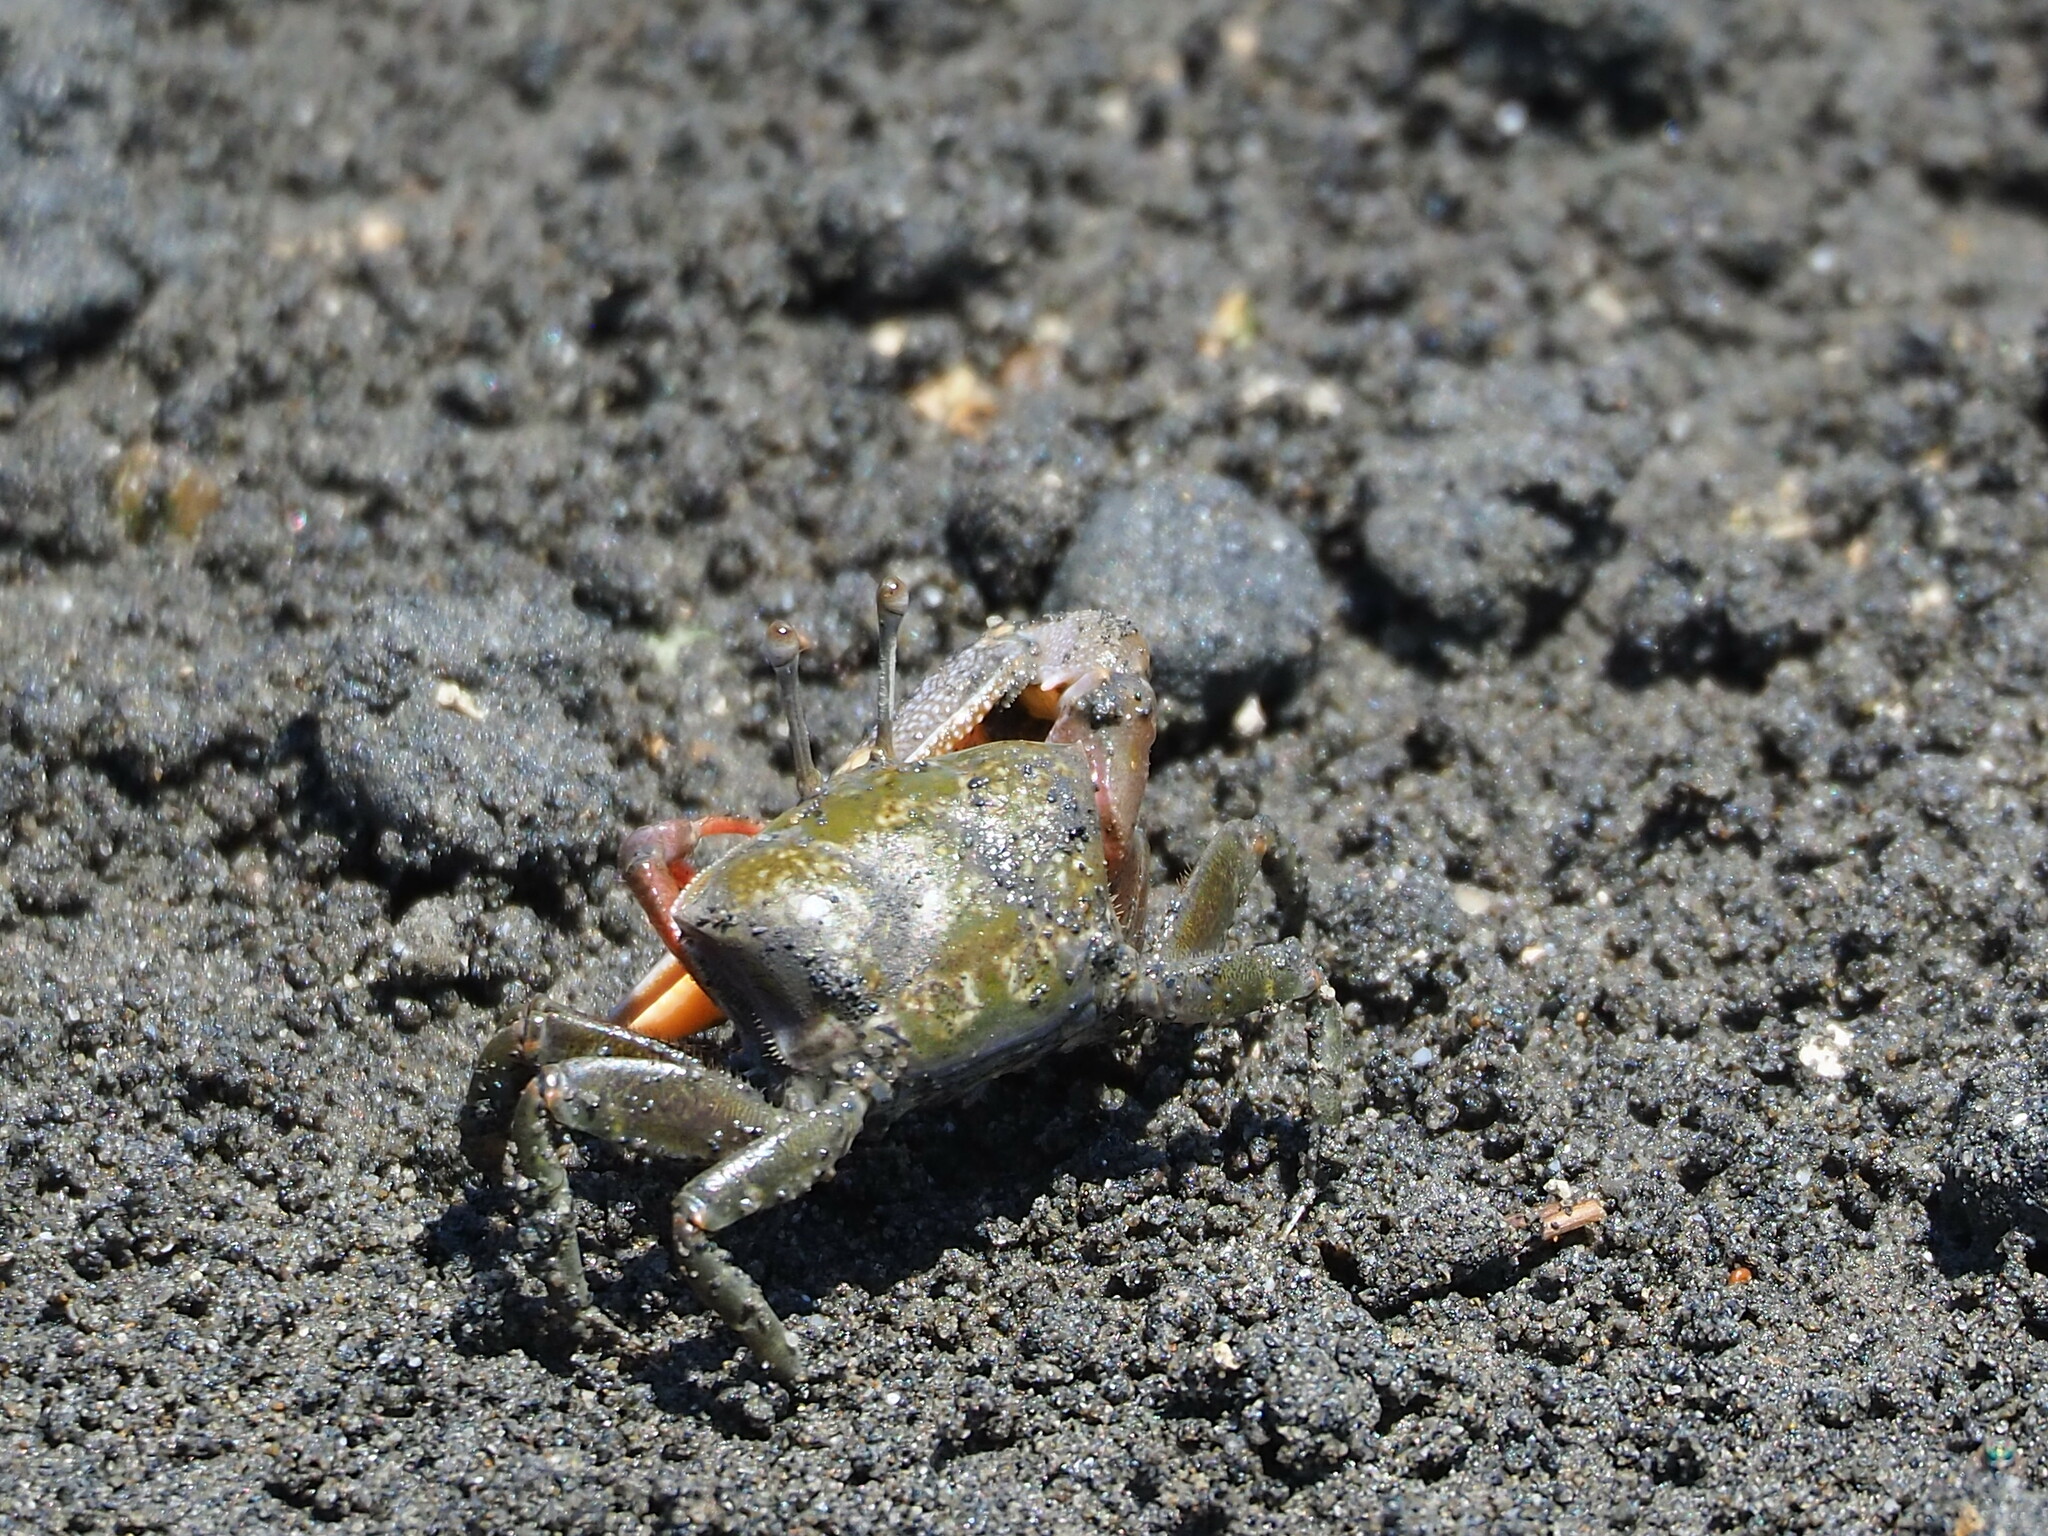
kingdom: Animalia
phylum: Arthropoda
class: Malacostraca
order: Decapoda
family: Ocypodidae
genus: Gelasimus
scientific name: Gelasimus borealis
